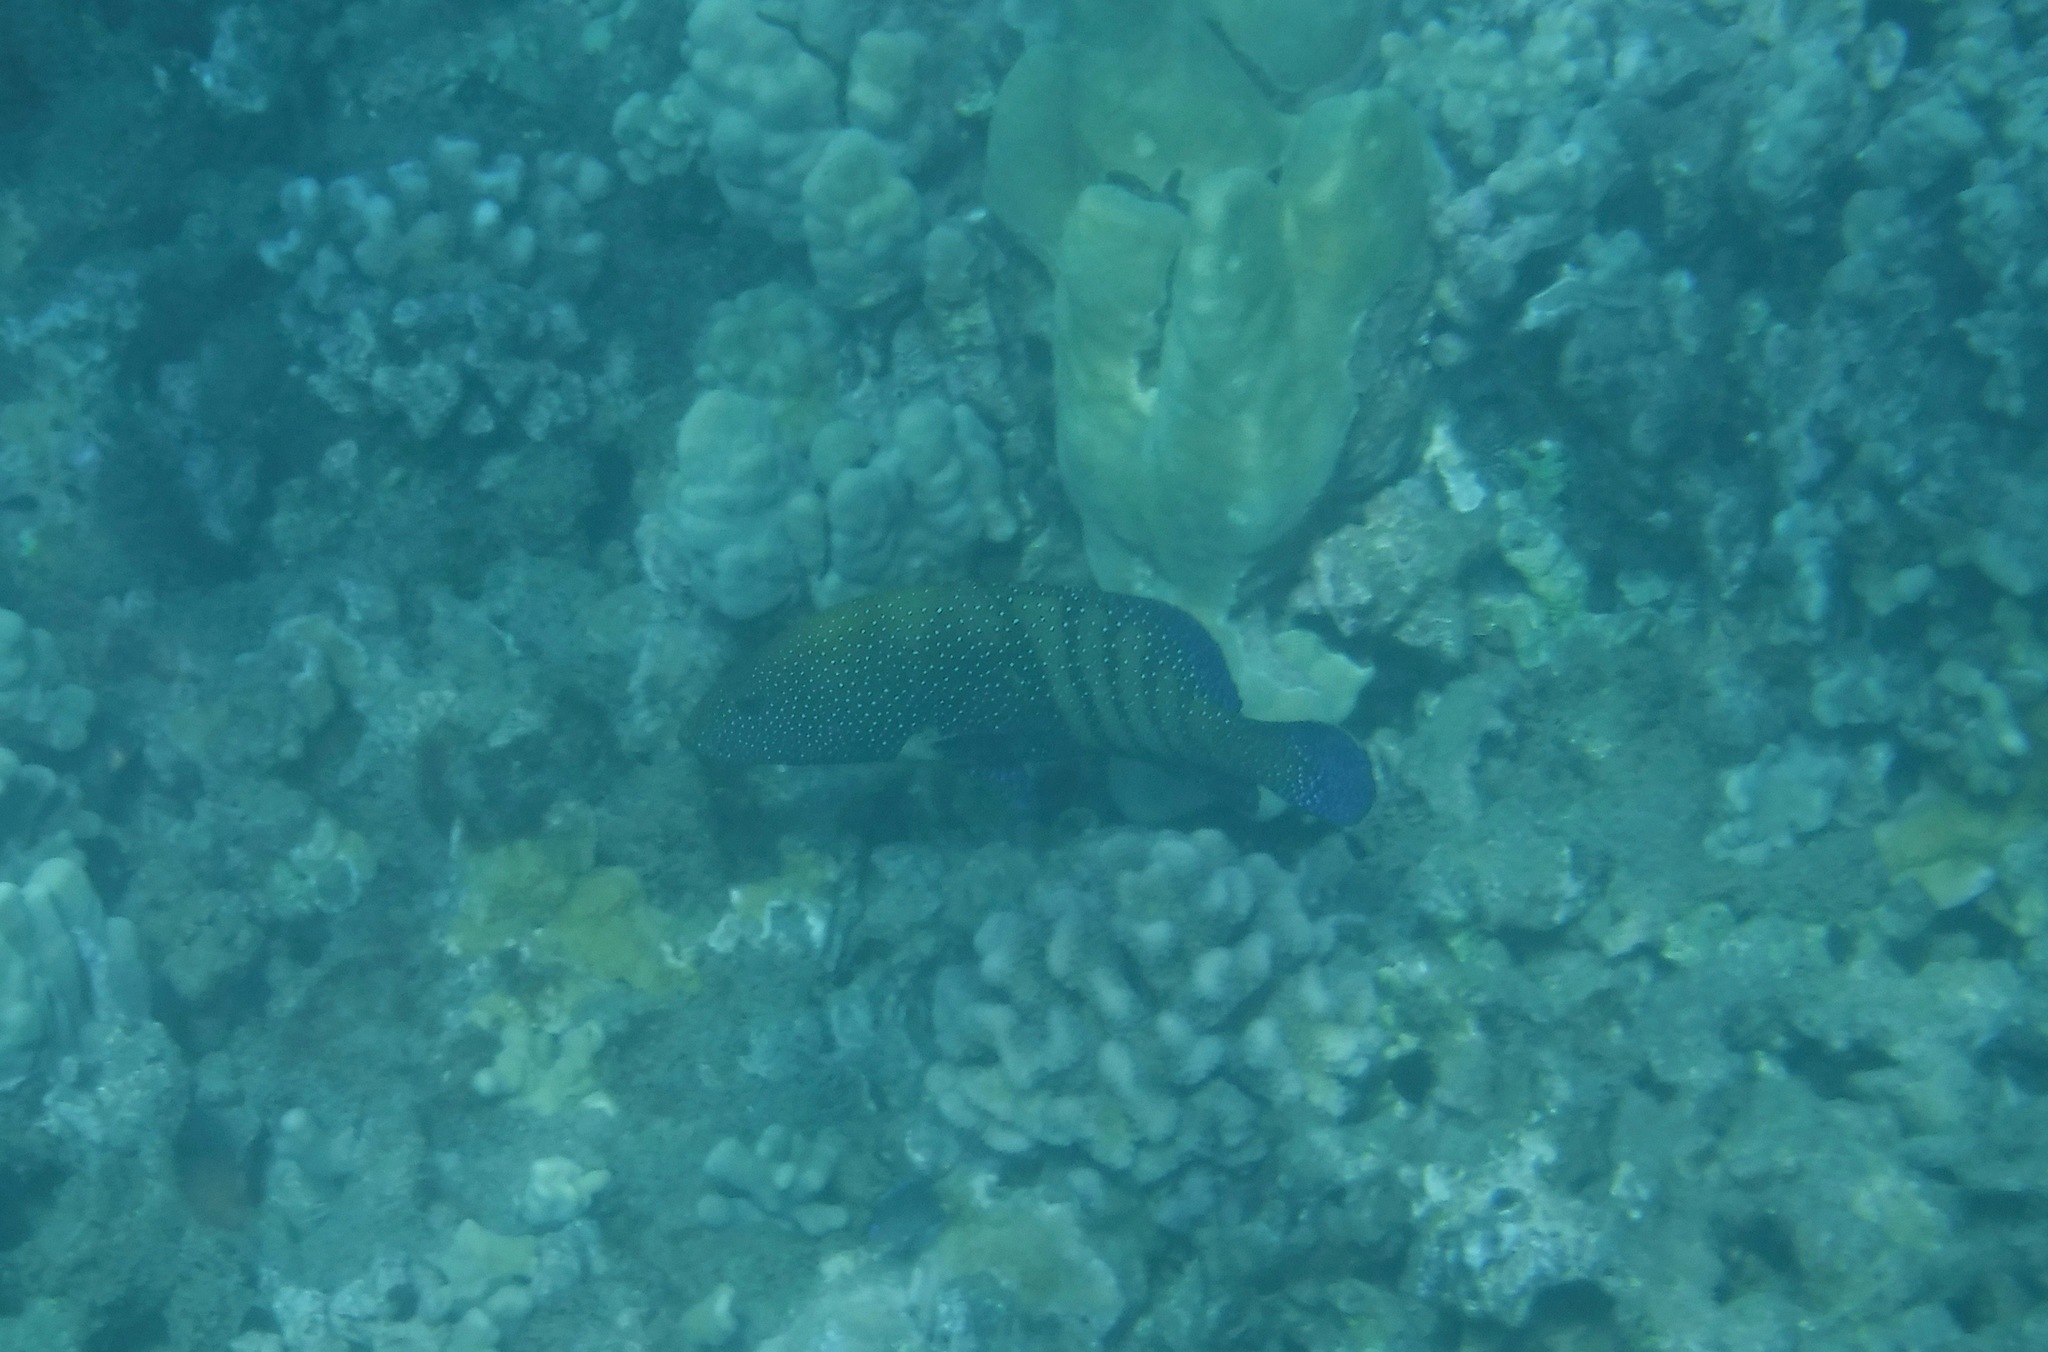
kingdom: Animalia
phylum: Chordata
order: Perciformes
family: Serranidae
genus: Cephalopholis
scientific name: Cephalopholis argus
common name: Peacock grouper
